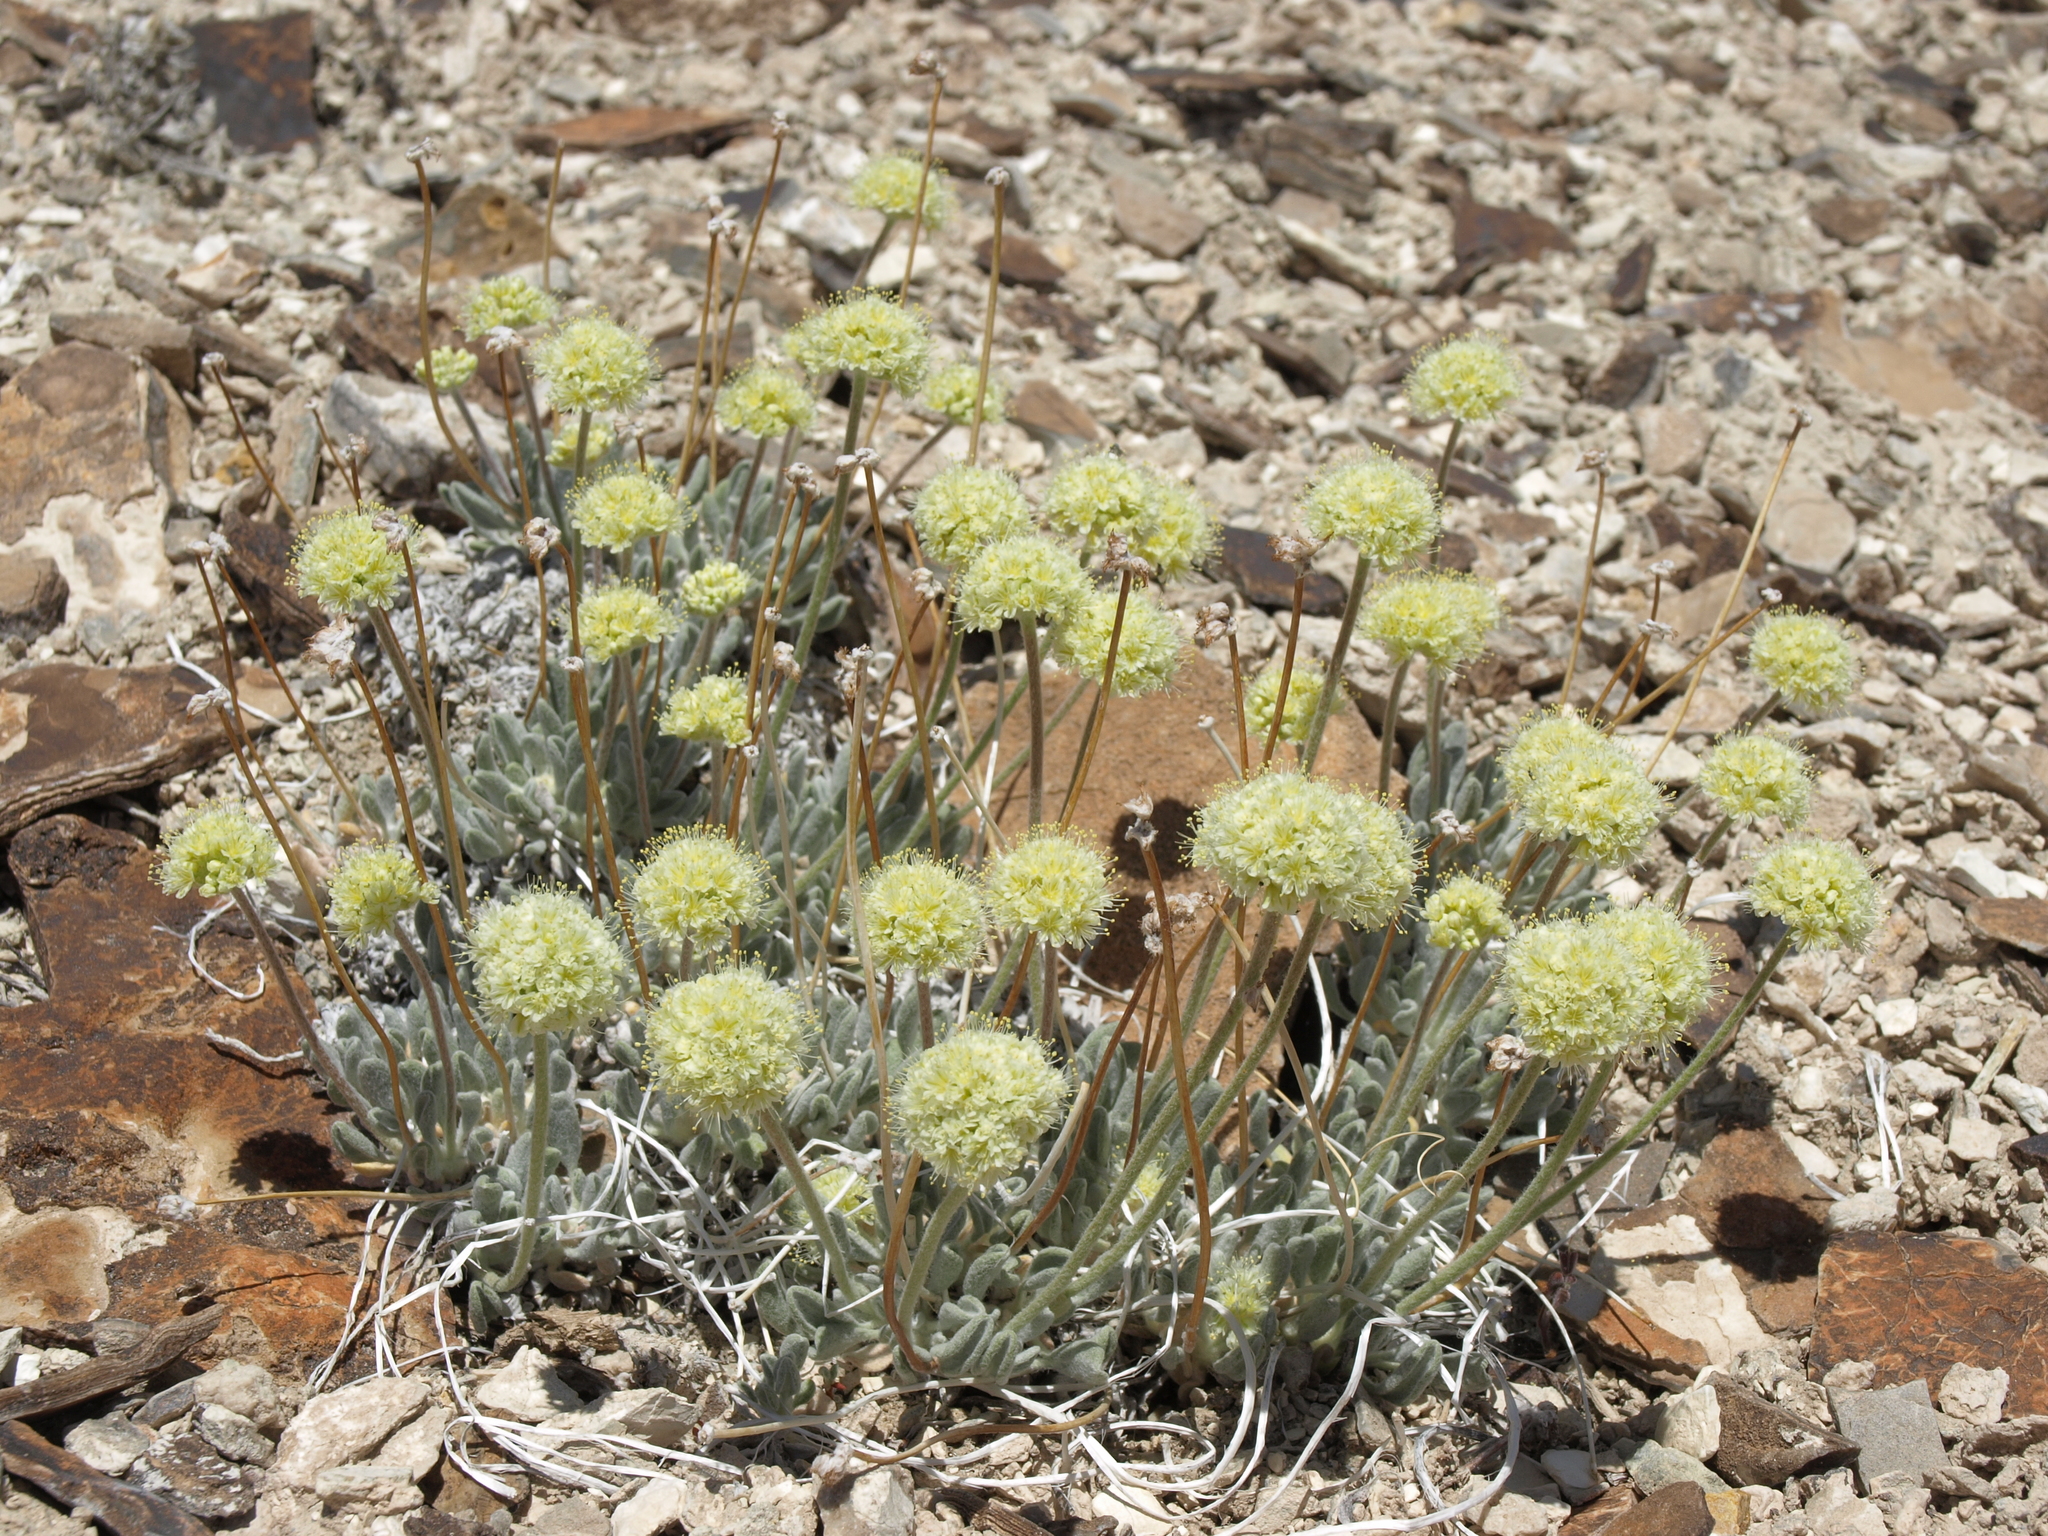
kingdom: Plantae
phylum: Tracheophyta
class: Magnoliopsida
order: Caryophyllales
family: Polygonaceae
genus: Eriogonum
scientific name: Eriogonum tiehmii
